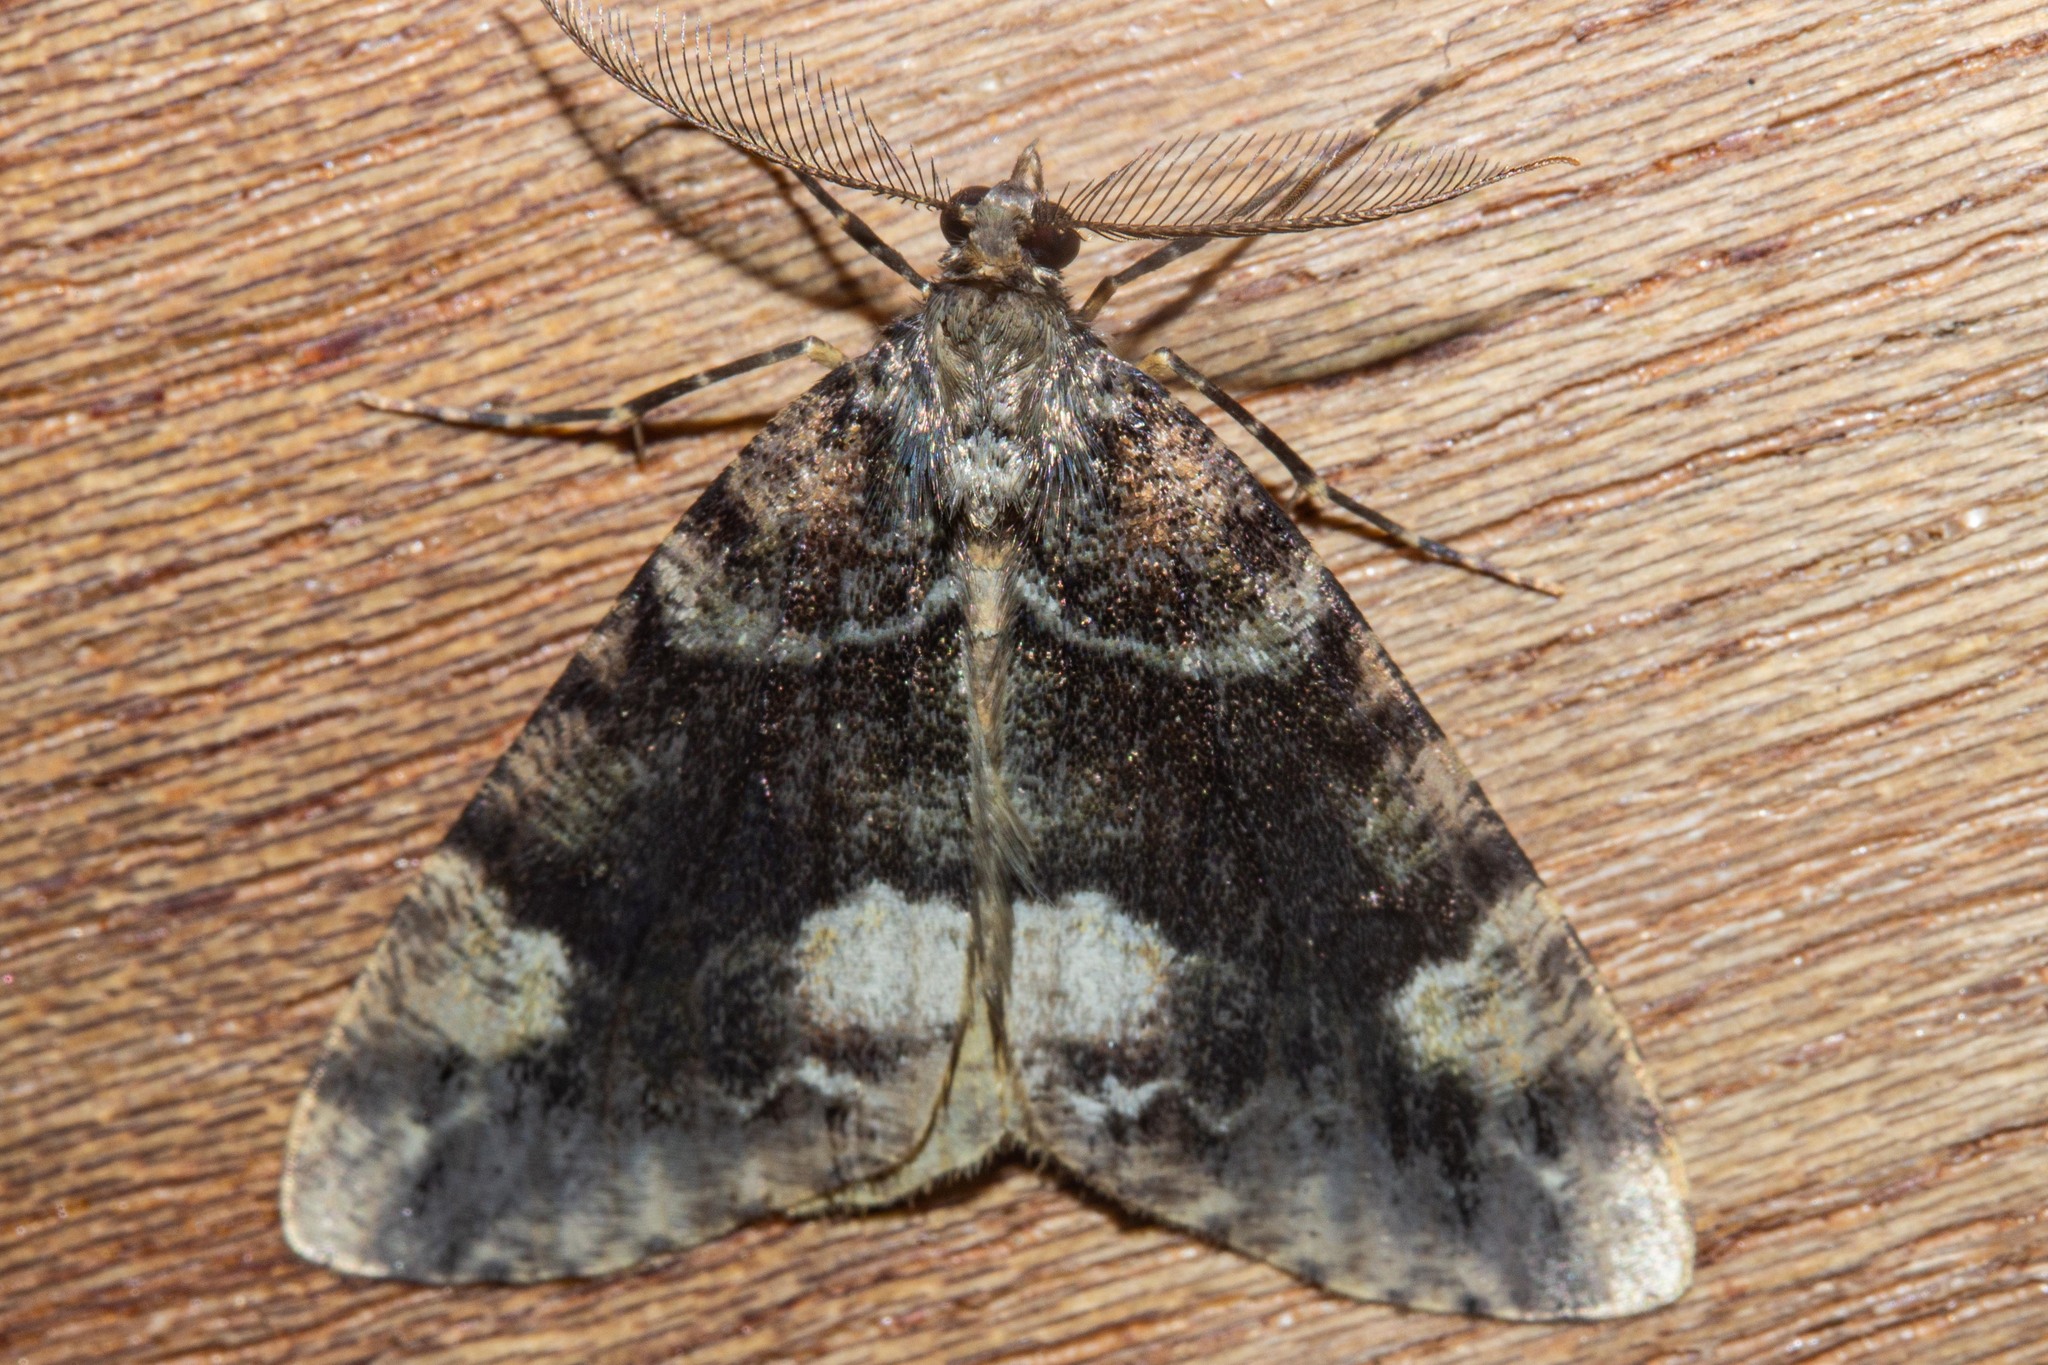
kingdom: Animalia
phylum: Arthropoda
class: Insecta
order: Lepidoptera
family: Geometridae
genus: Pseudocoremia
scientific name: Pseudocoremia productata
